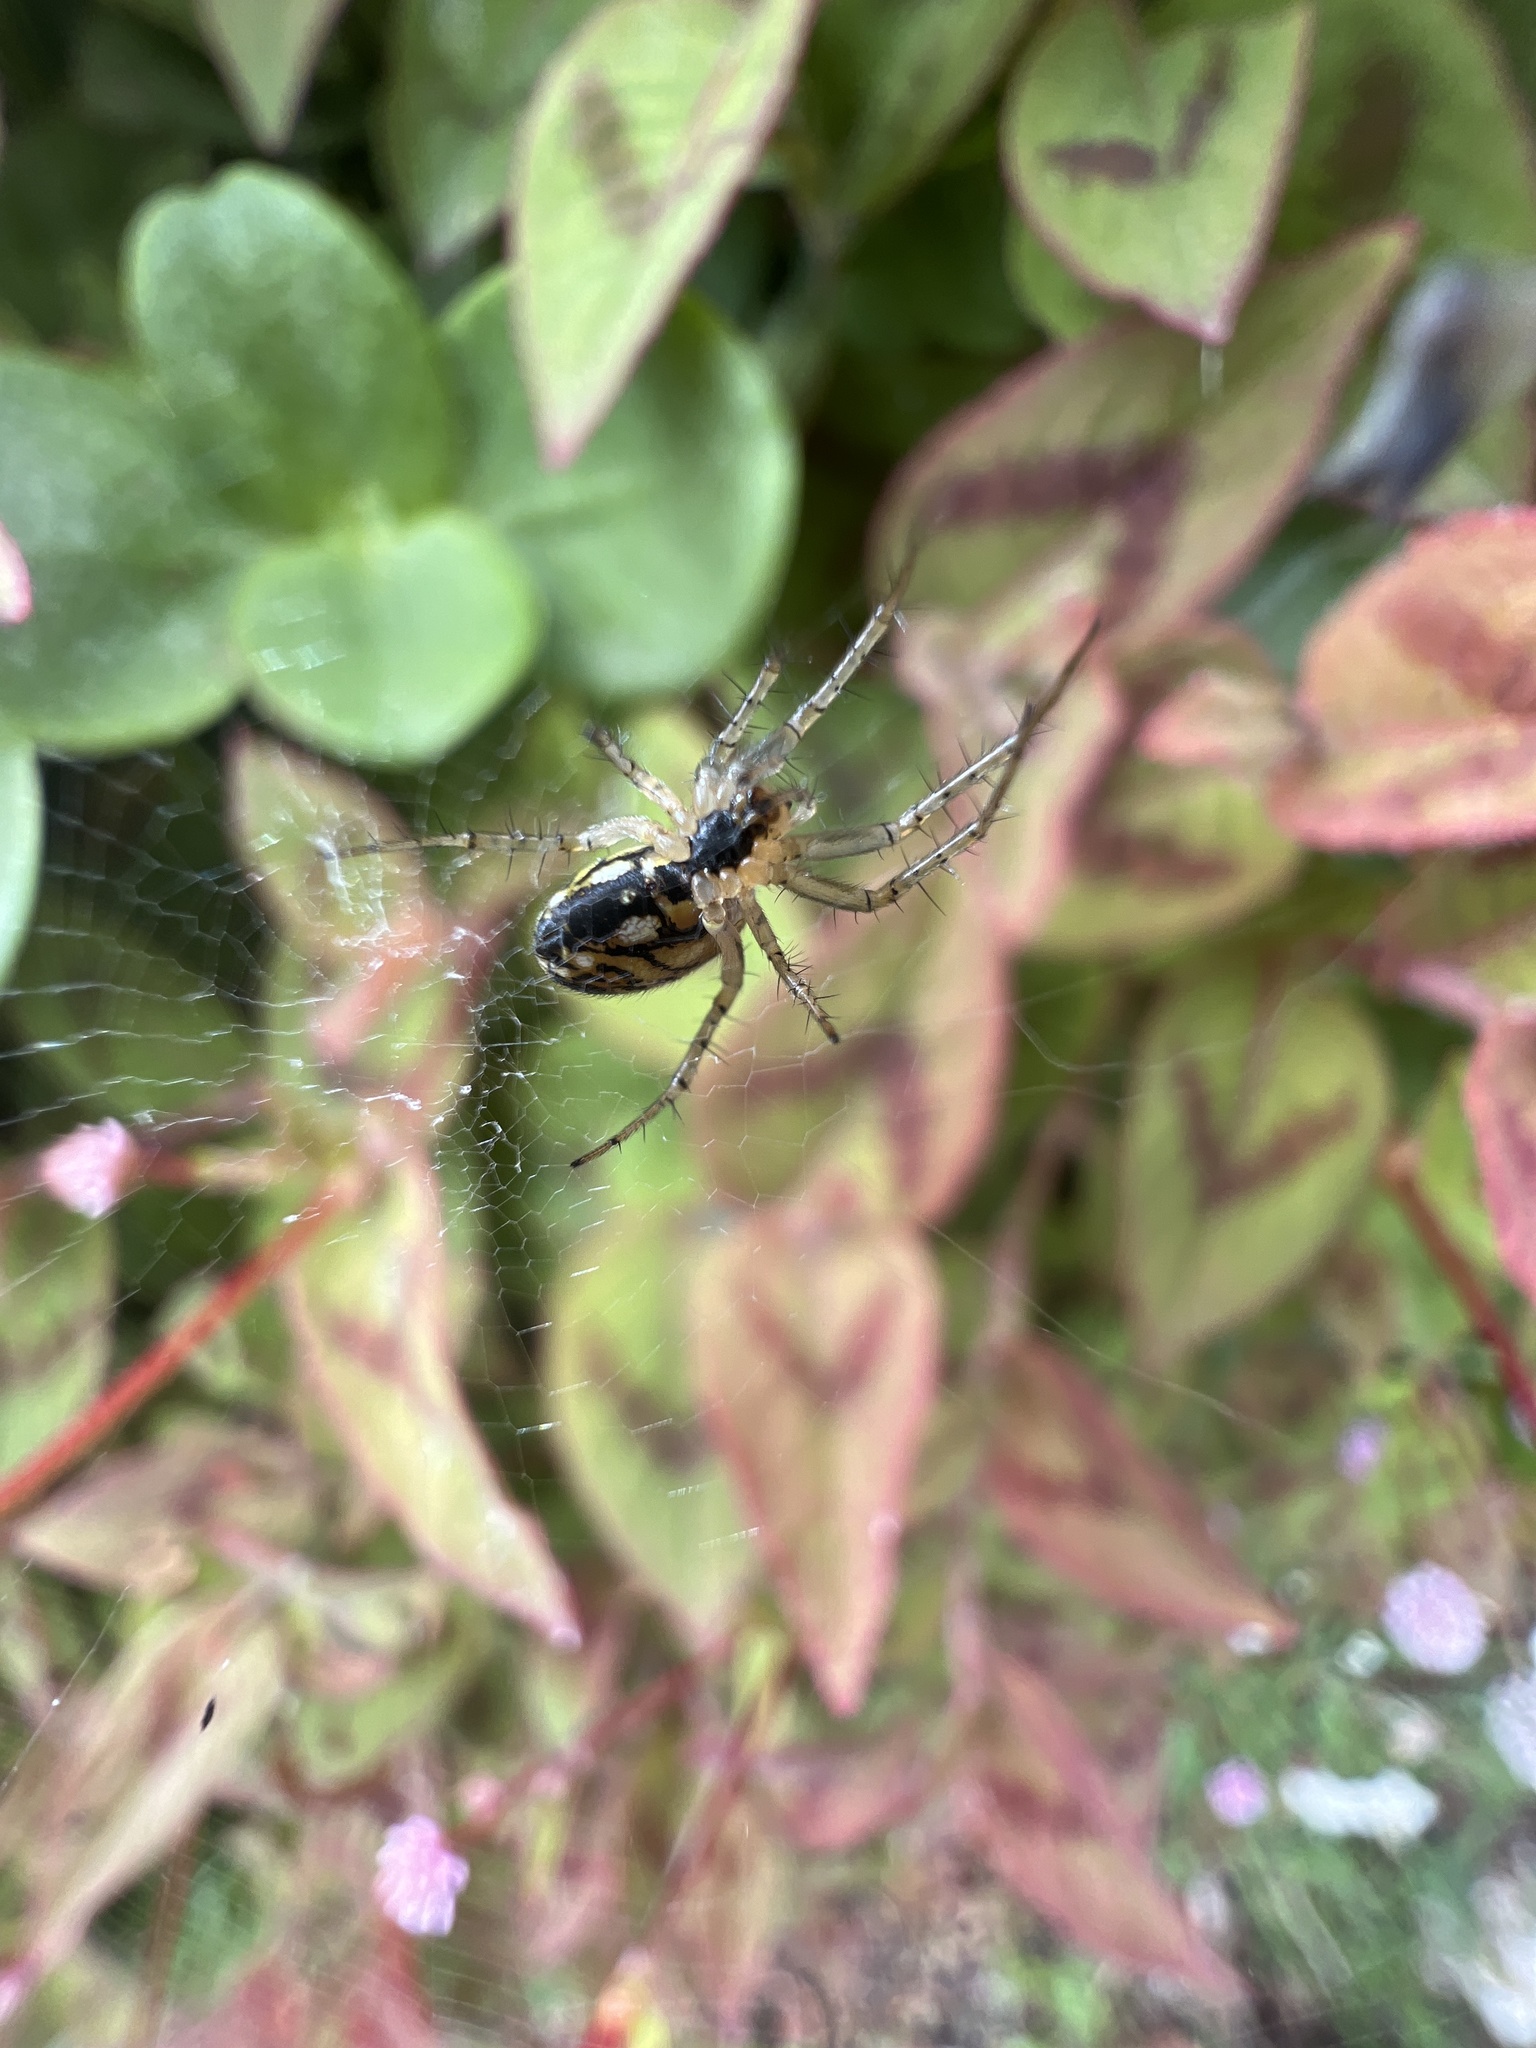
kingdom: Animalia
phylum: Arthropoda
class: Arachnida
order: Araneae
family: Araneidae
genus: Mangora
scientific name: Mangora acalypha
